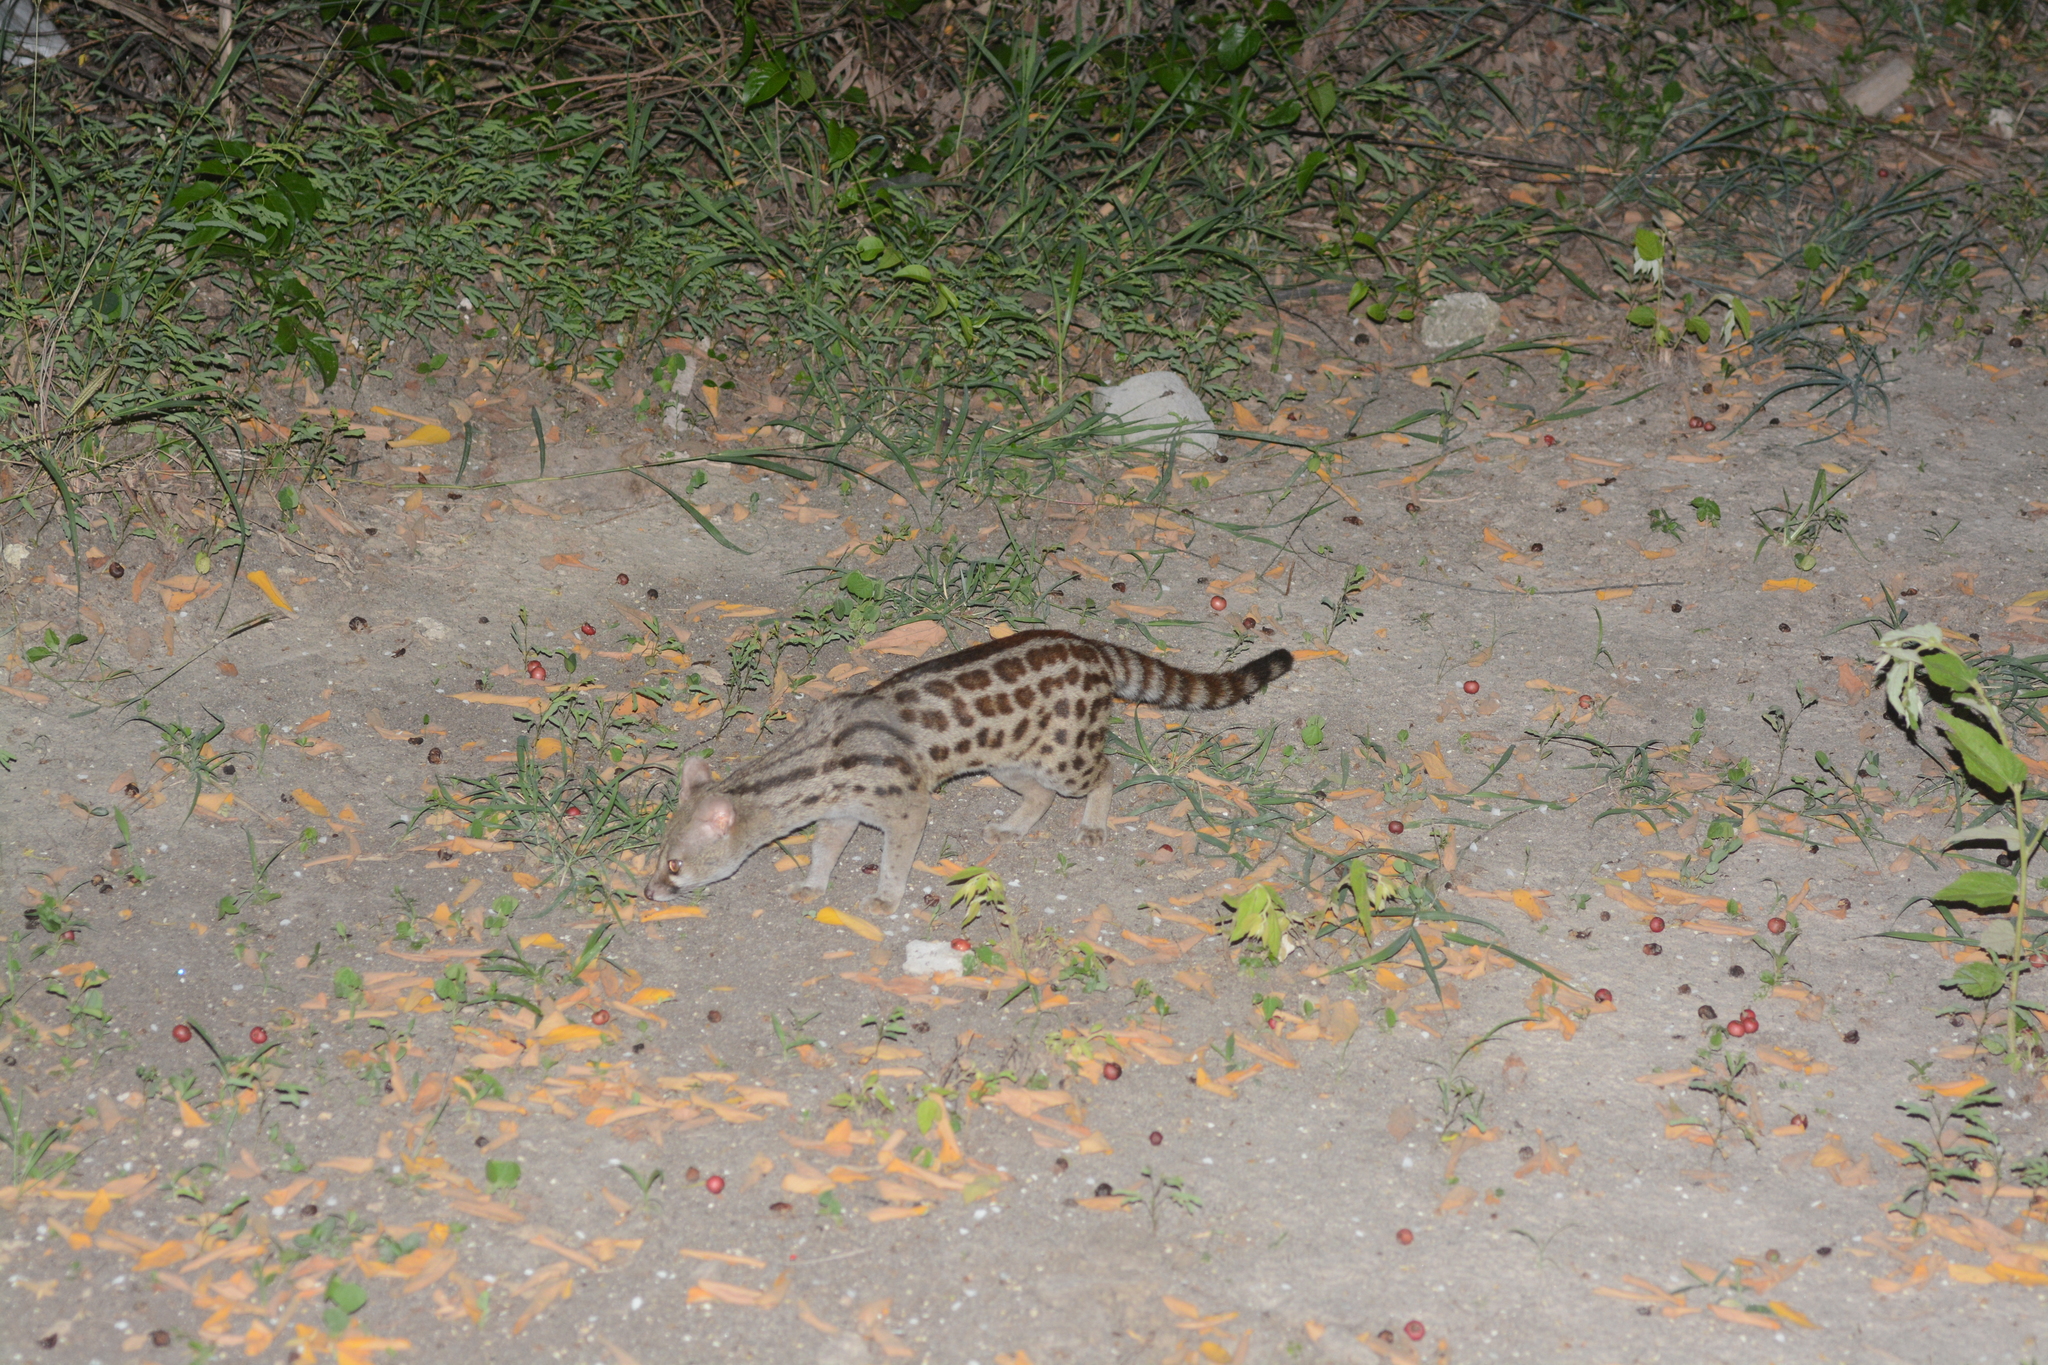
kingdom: Animalia
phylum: Chordata
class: Mammalia
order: Carnivora
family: Viverridae
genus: Genetta
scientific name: Genetta maculata
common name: Rusty-spotted genet
